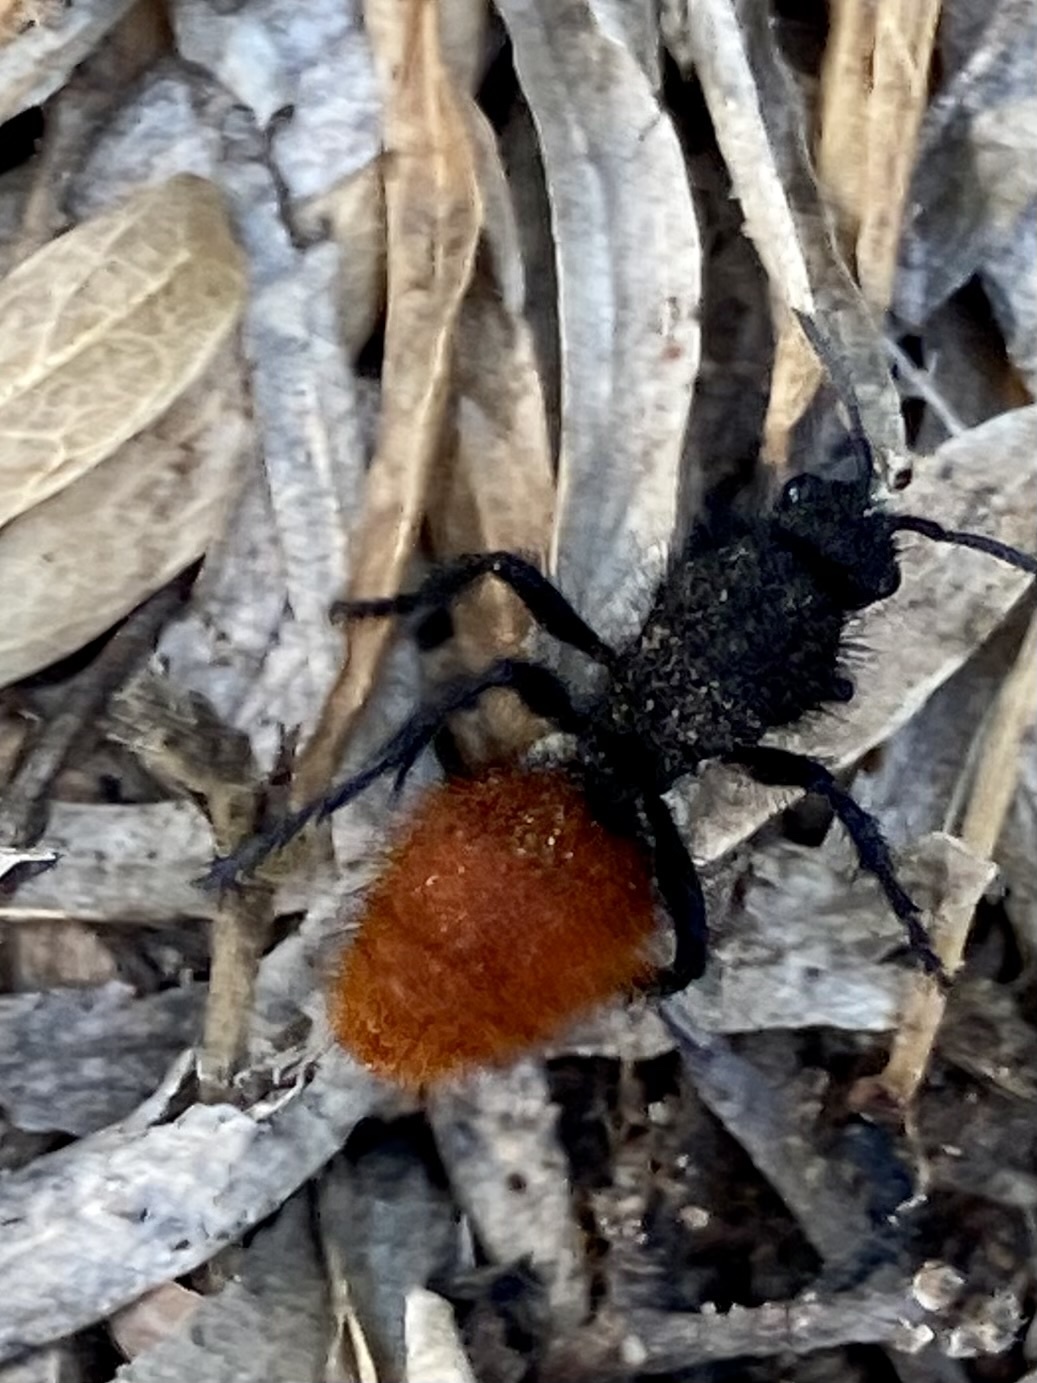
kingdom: Animalia
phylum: Arthropoda
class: Insecta
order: Hymenoptera
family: Mutillidae
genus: Dasymutilla
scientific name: Dasymutilla
